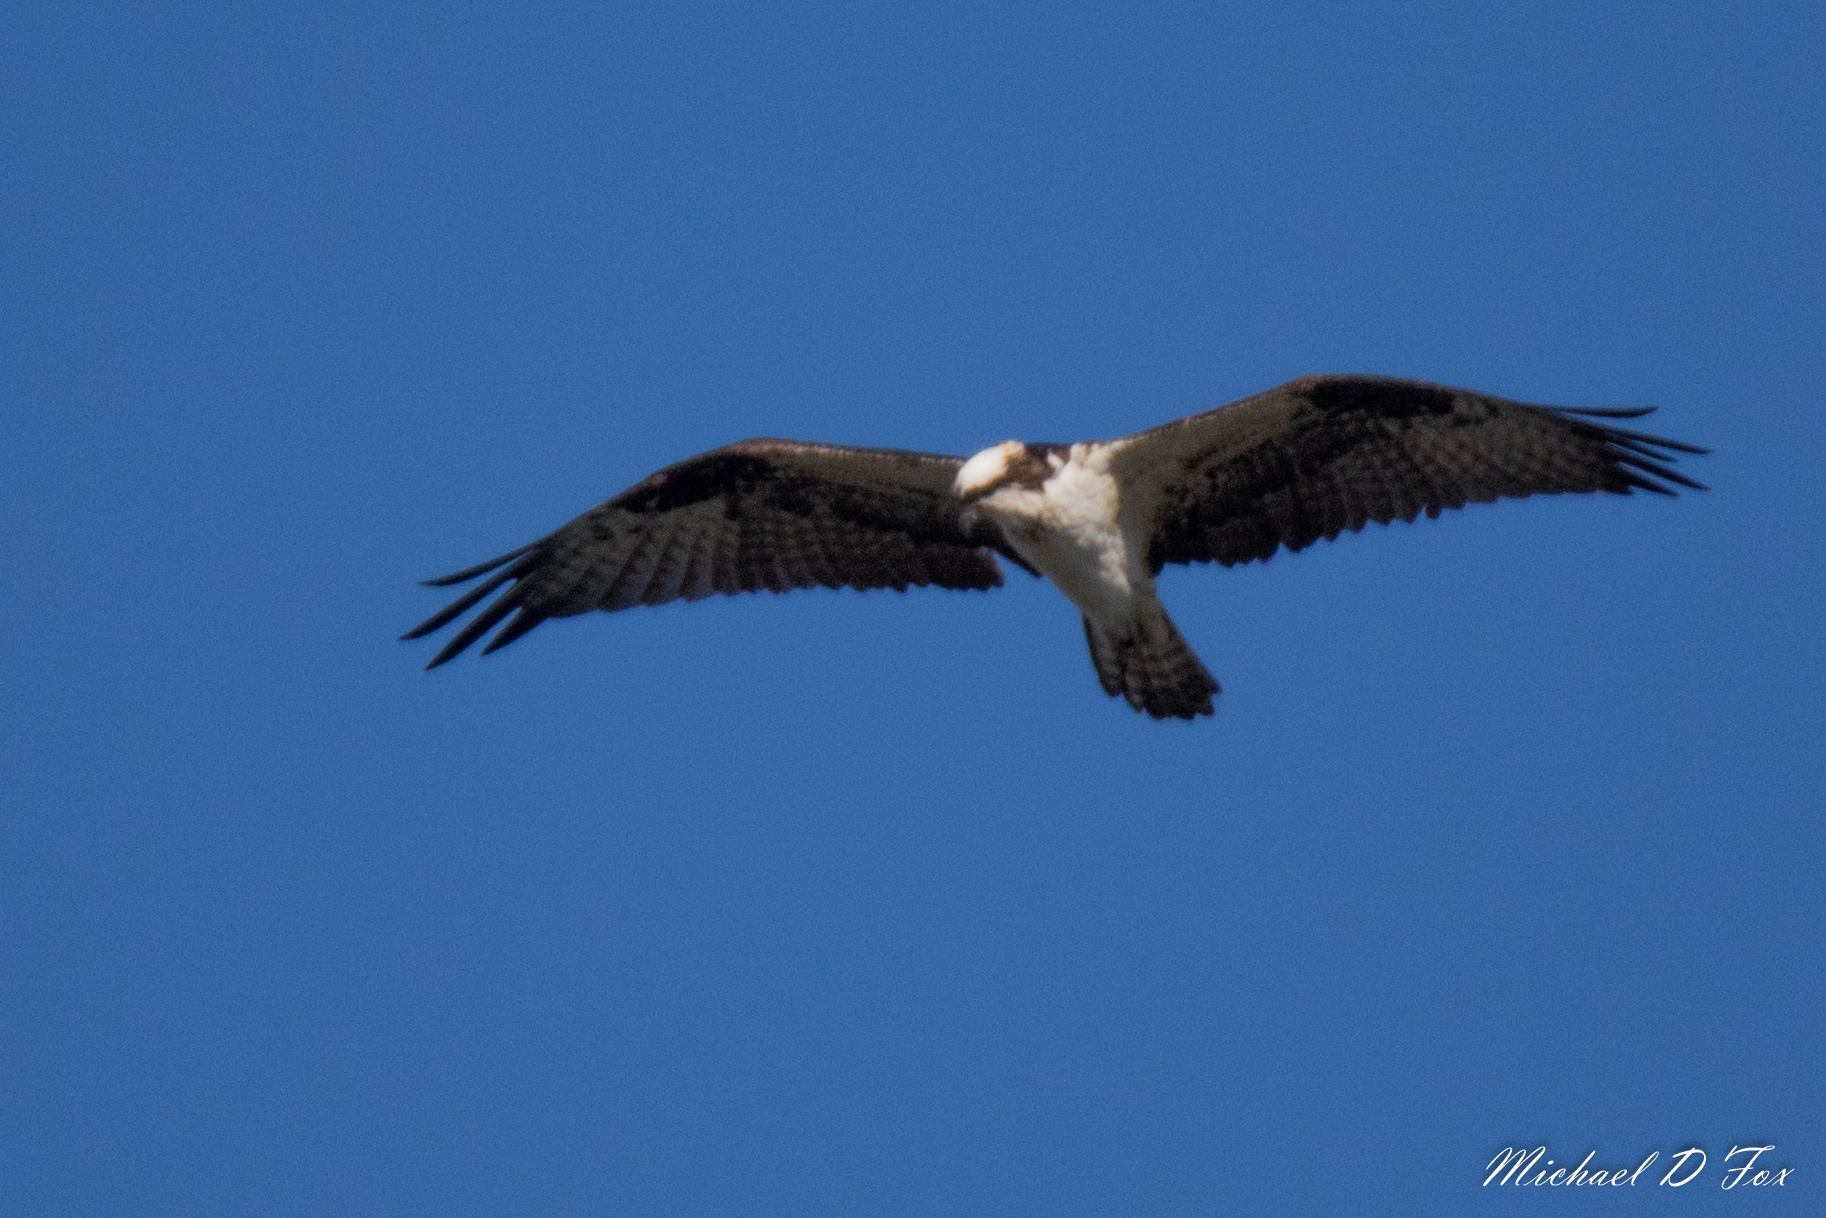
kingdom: Animalia
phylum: Chordata
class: Aves
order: Accipitriformes
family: Pandionidae
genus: Pandion
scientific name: Pandion haliaetus
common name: Osprey
